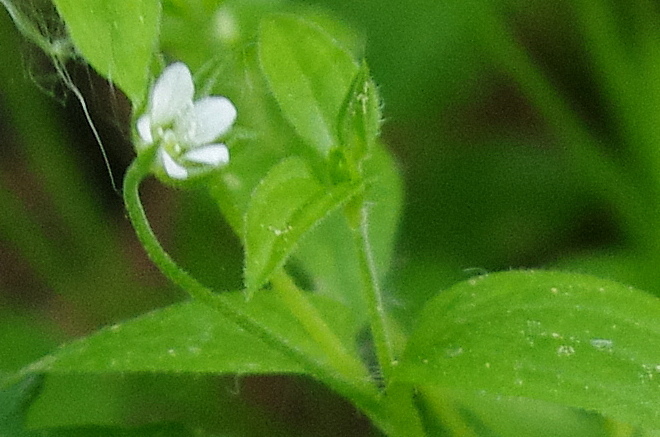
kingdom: Plantae
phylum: Tracheophyta
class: Magnoliopsida
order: Caryophyllales
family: Caryophyllaceae
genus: Moehringia
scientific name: Moehringia trinervia
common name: Three-nerved sandwort
